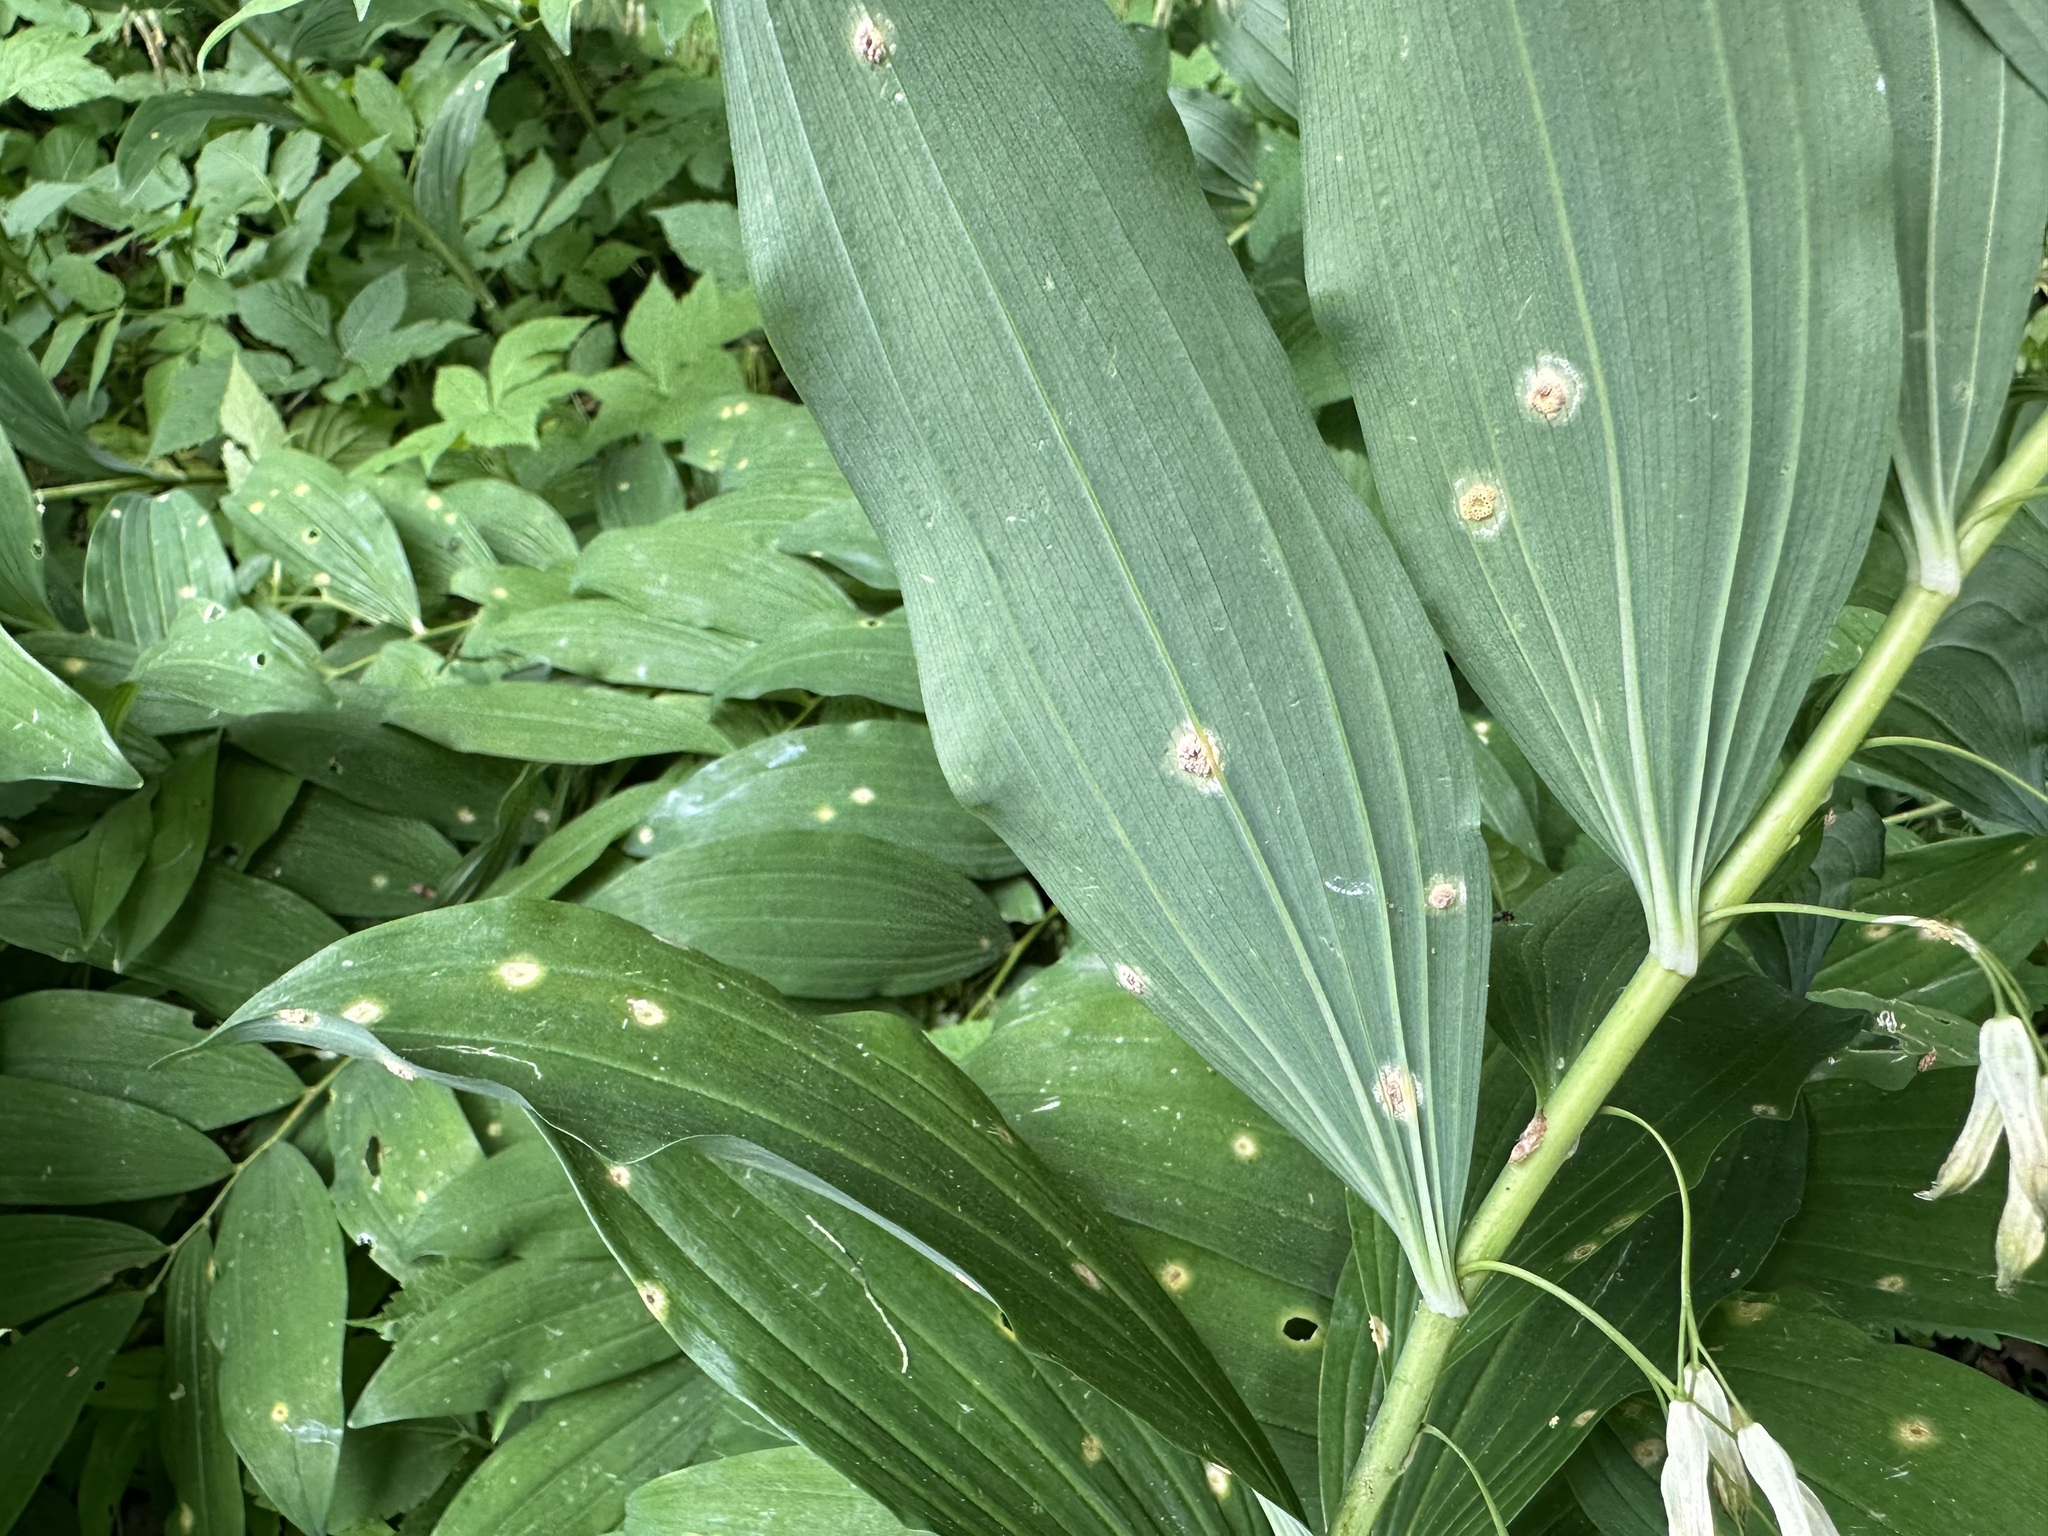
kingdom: Fungi
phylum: Basidiomycota
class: Pucciniomycetes
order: Pucciniales
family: Pucciniaceae
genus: Puccinia
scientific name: Puccinia sessilis
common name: Arum rust
